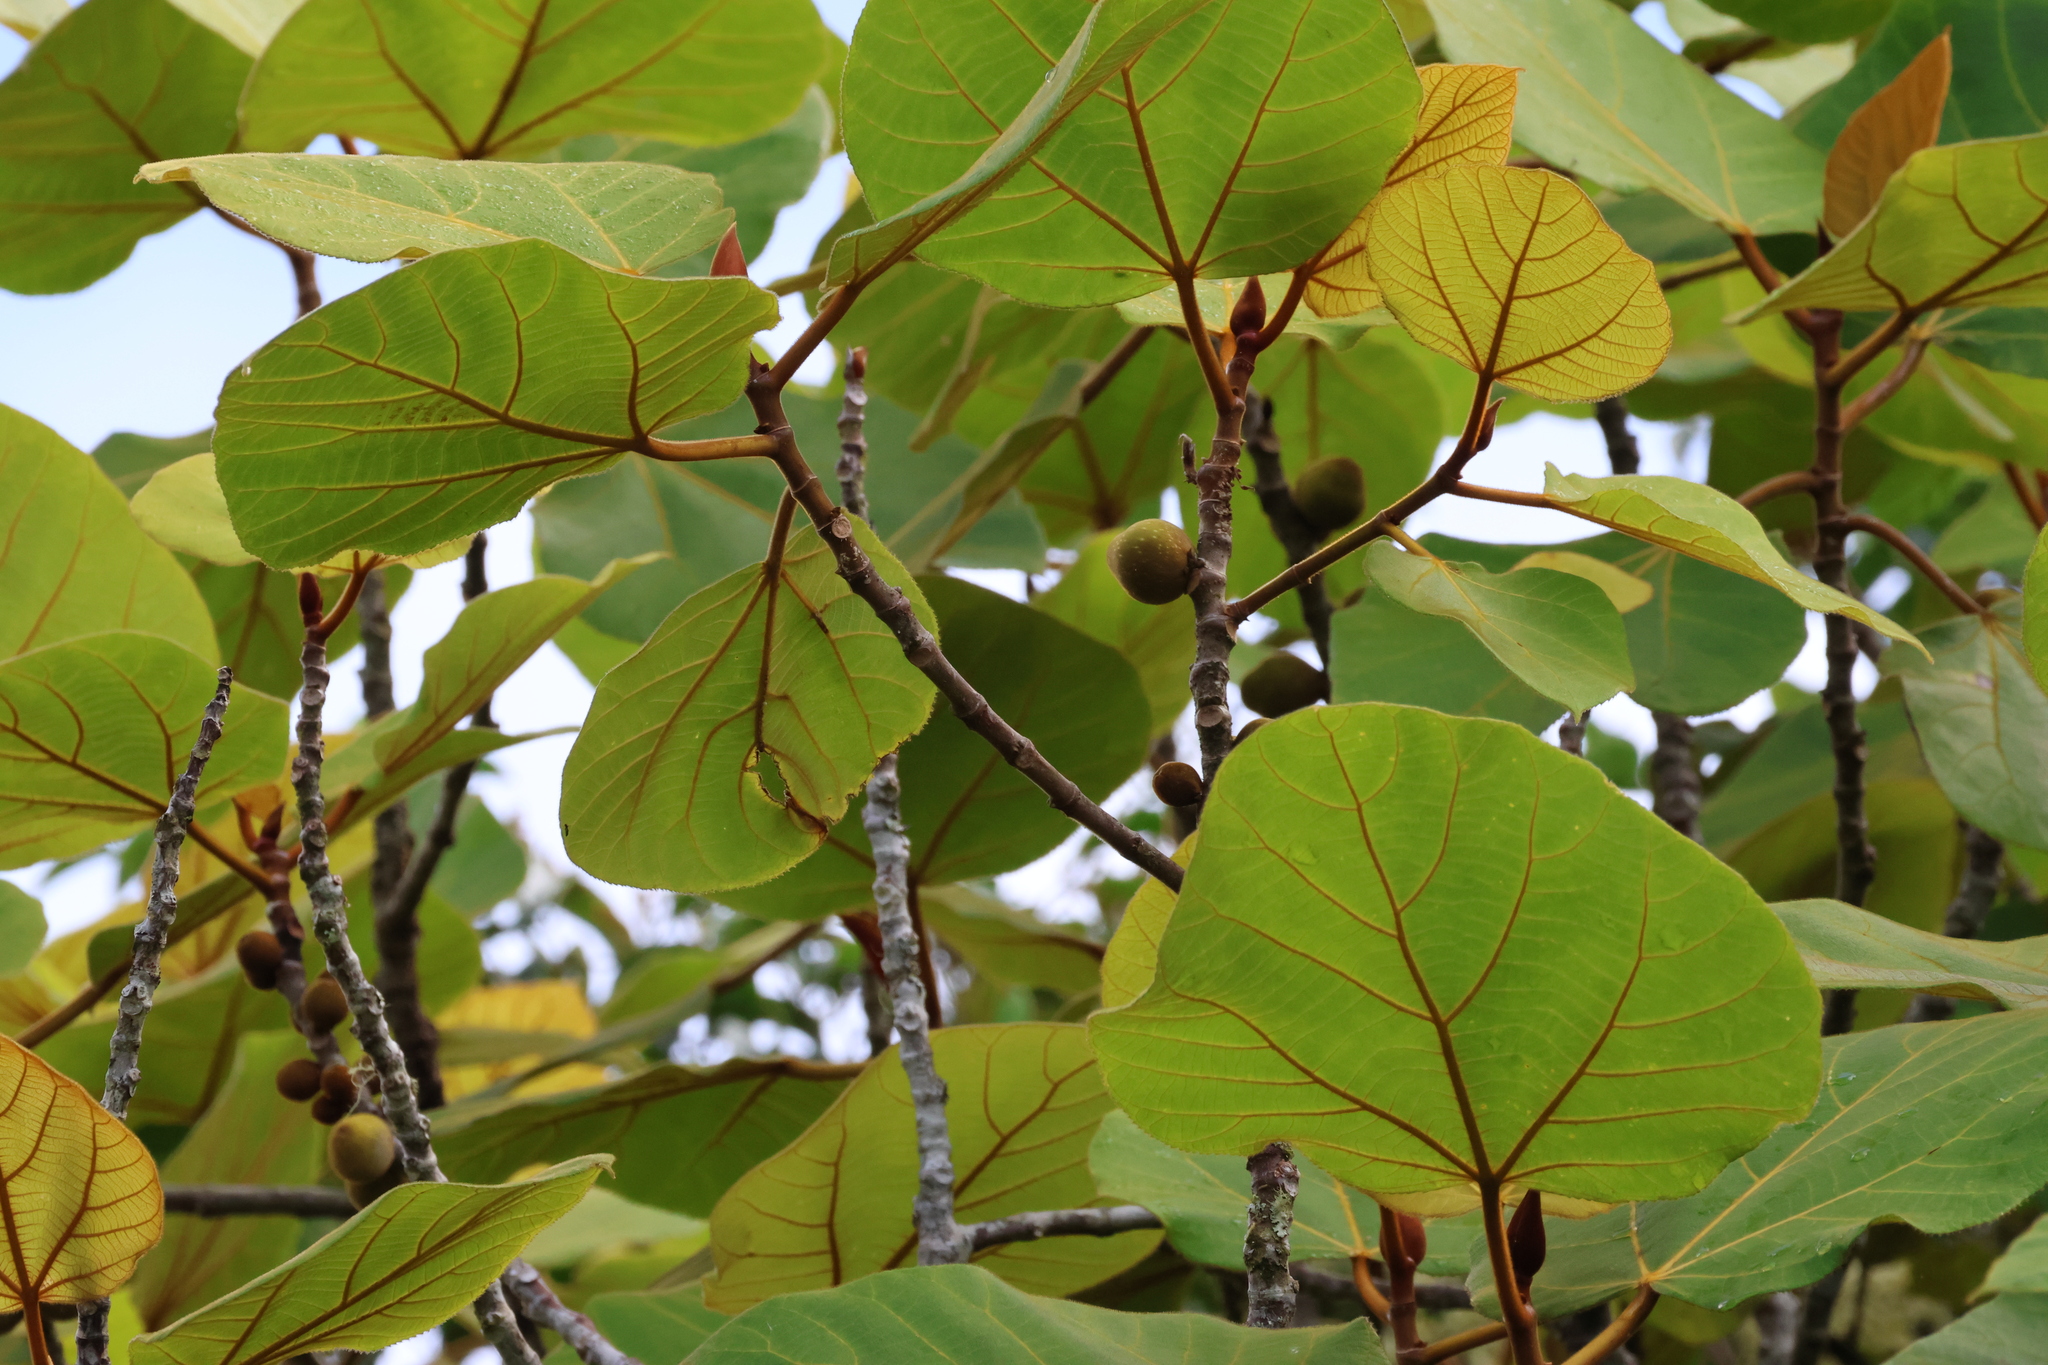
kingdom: Plantae
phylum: Tracheophyta
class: Magnoliopsida
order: Rosales
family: Moraceae
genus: Ficus
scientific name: Ficus endospermifolia
